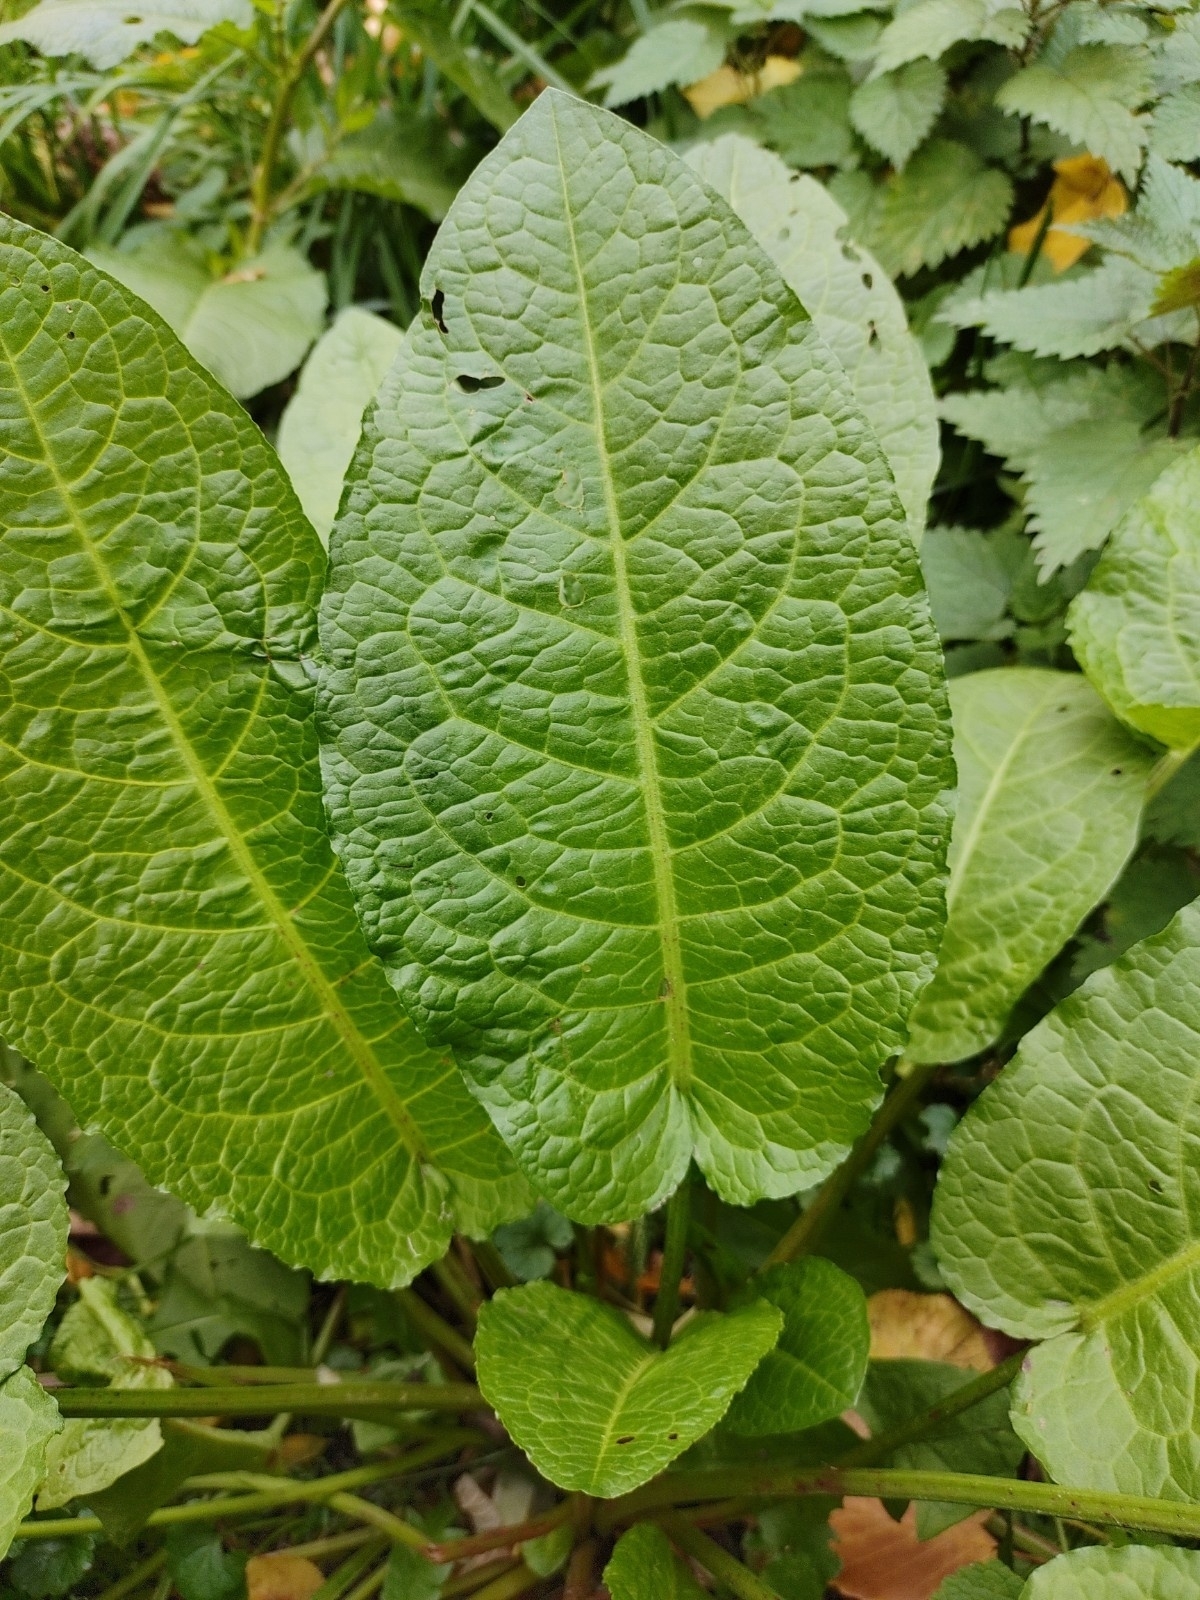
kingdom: Plantae
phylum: Tracheophyta
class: Magnoliopsida
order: Caryophyllales
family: Polygonaceae
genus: Rumex
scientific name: Rumex obtusifolius
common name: Bitter dock
